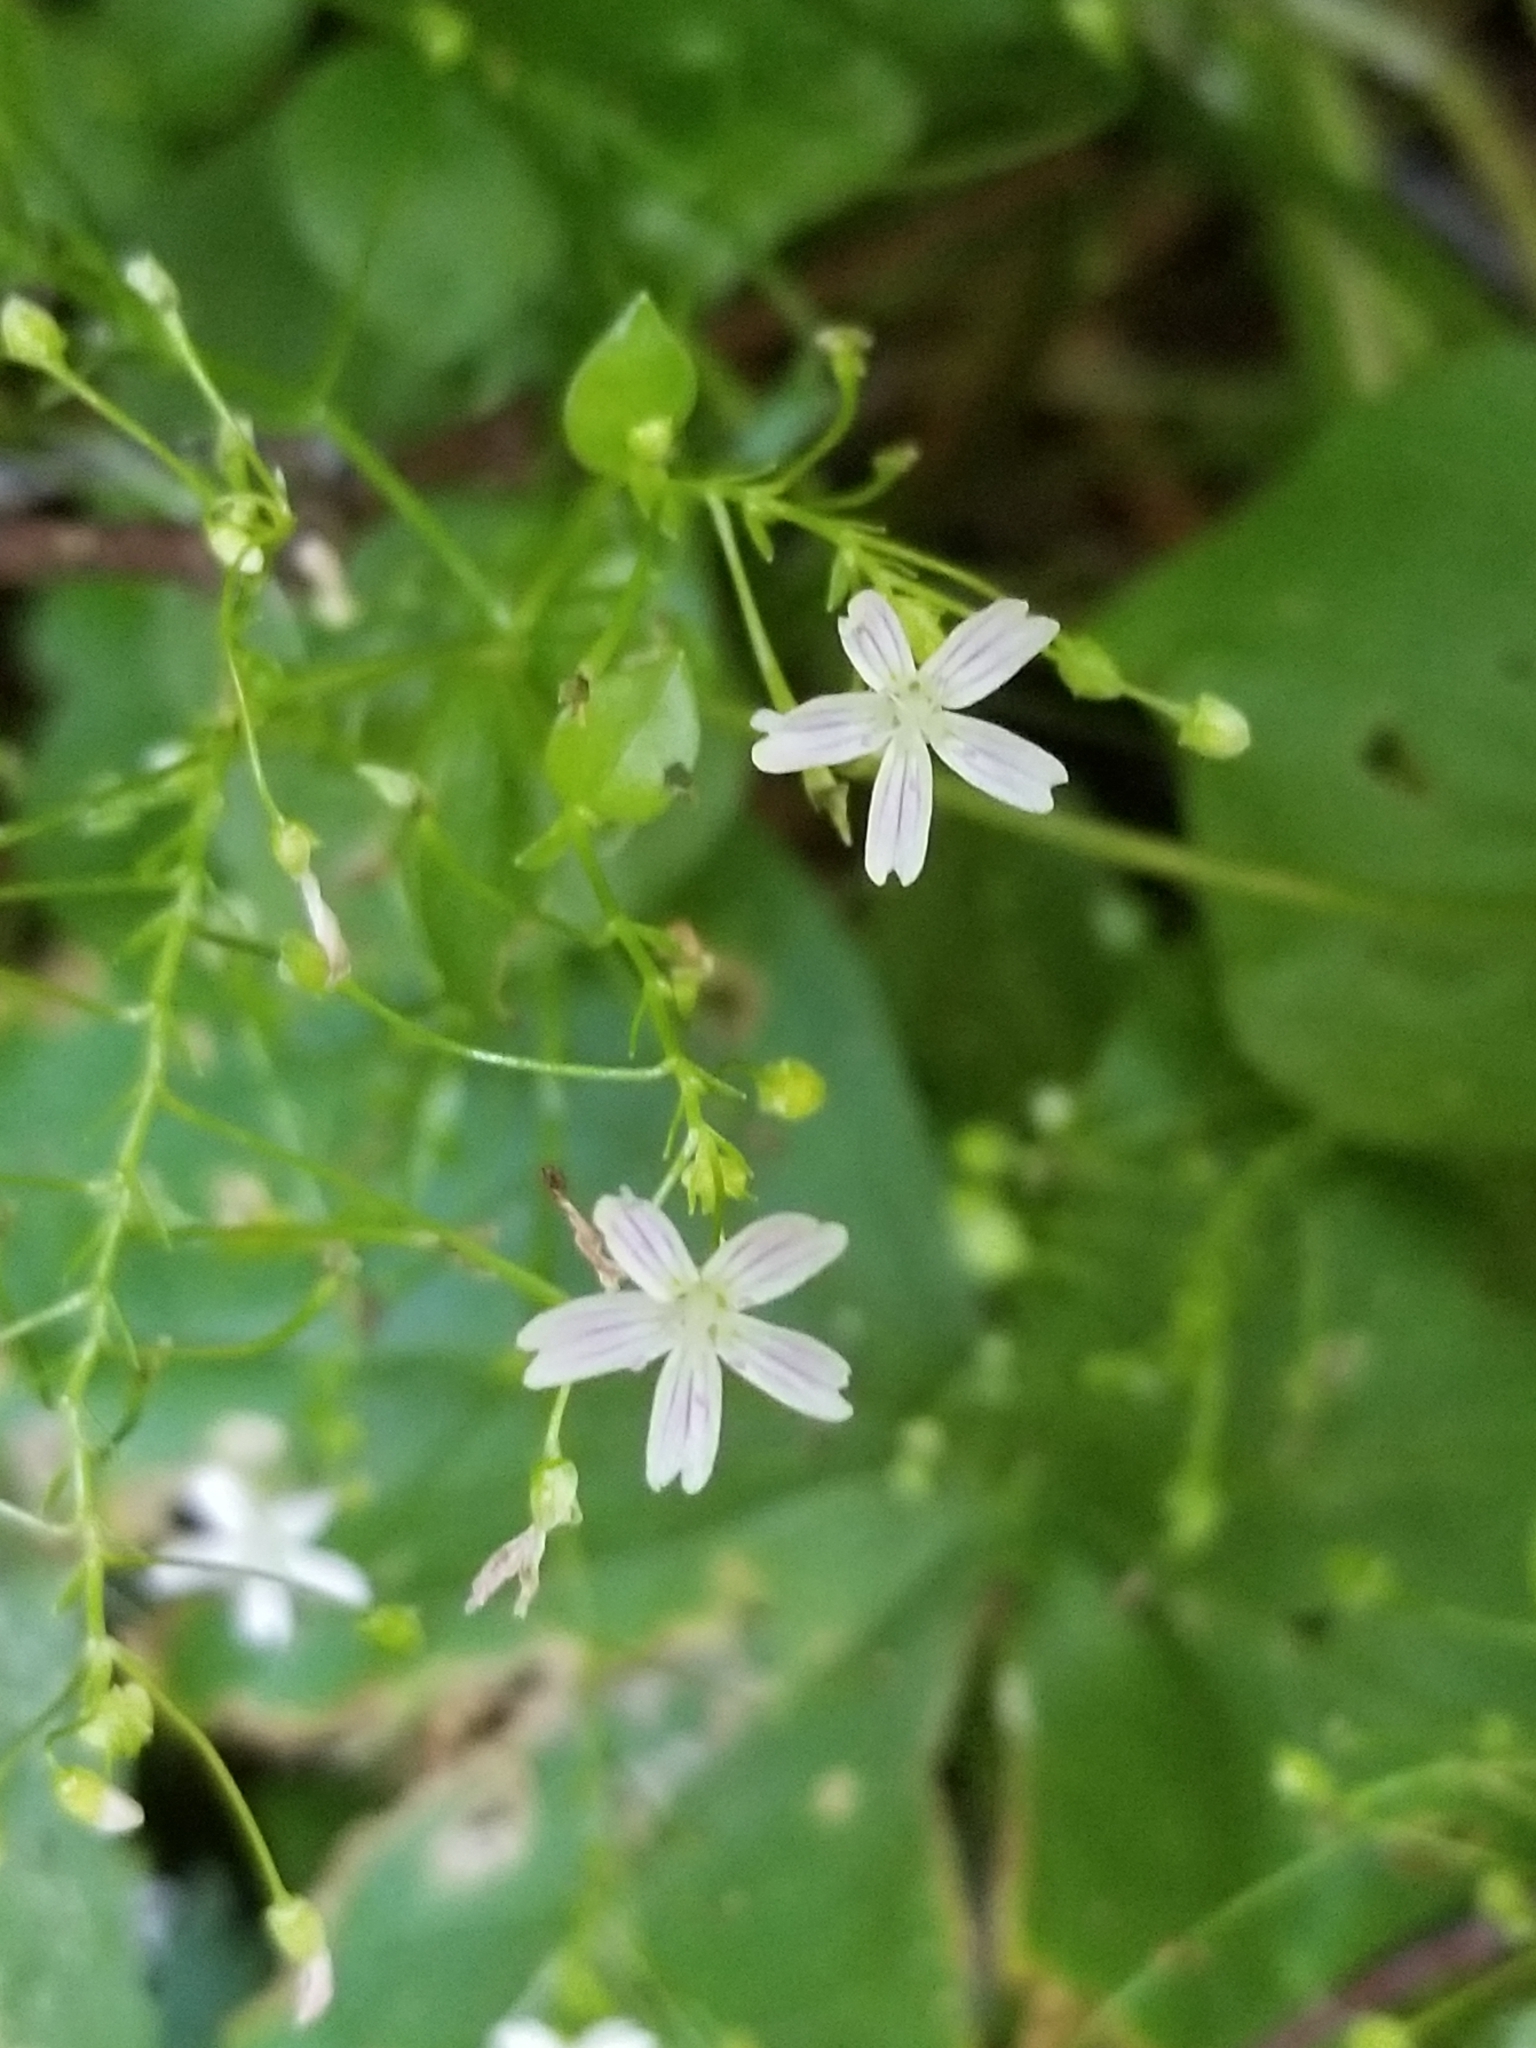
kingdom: Plantae
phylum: Tracheophyta
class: Magnoliopsida
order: Caryophyllales
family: Montiaceae
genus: Claytonia
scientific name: Claytonia sibirica
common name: Pink purslane
